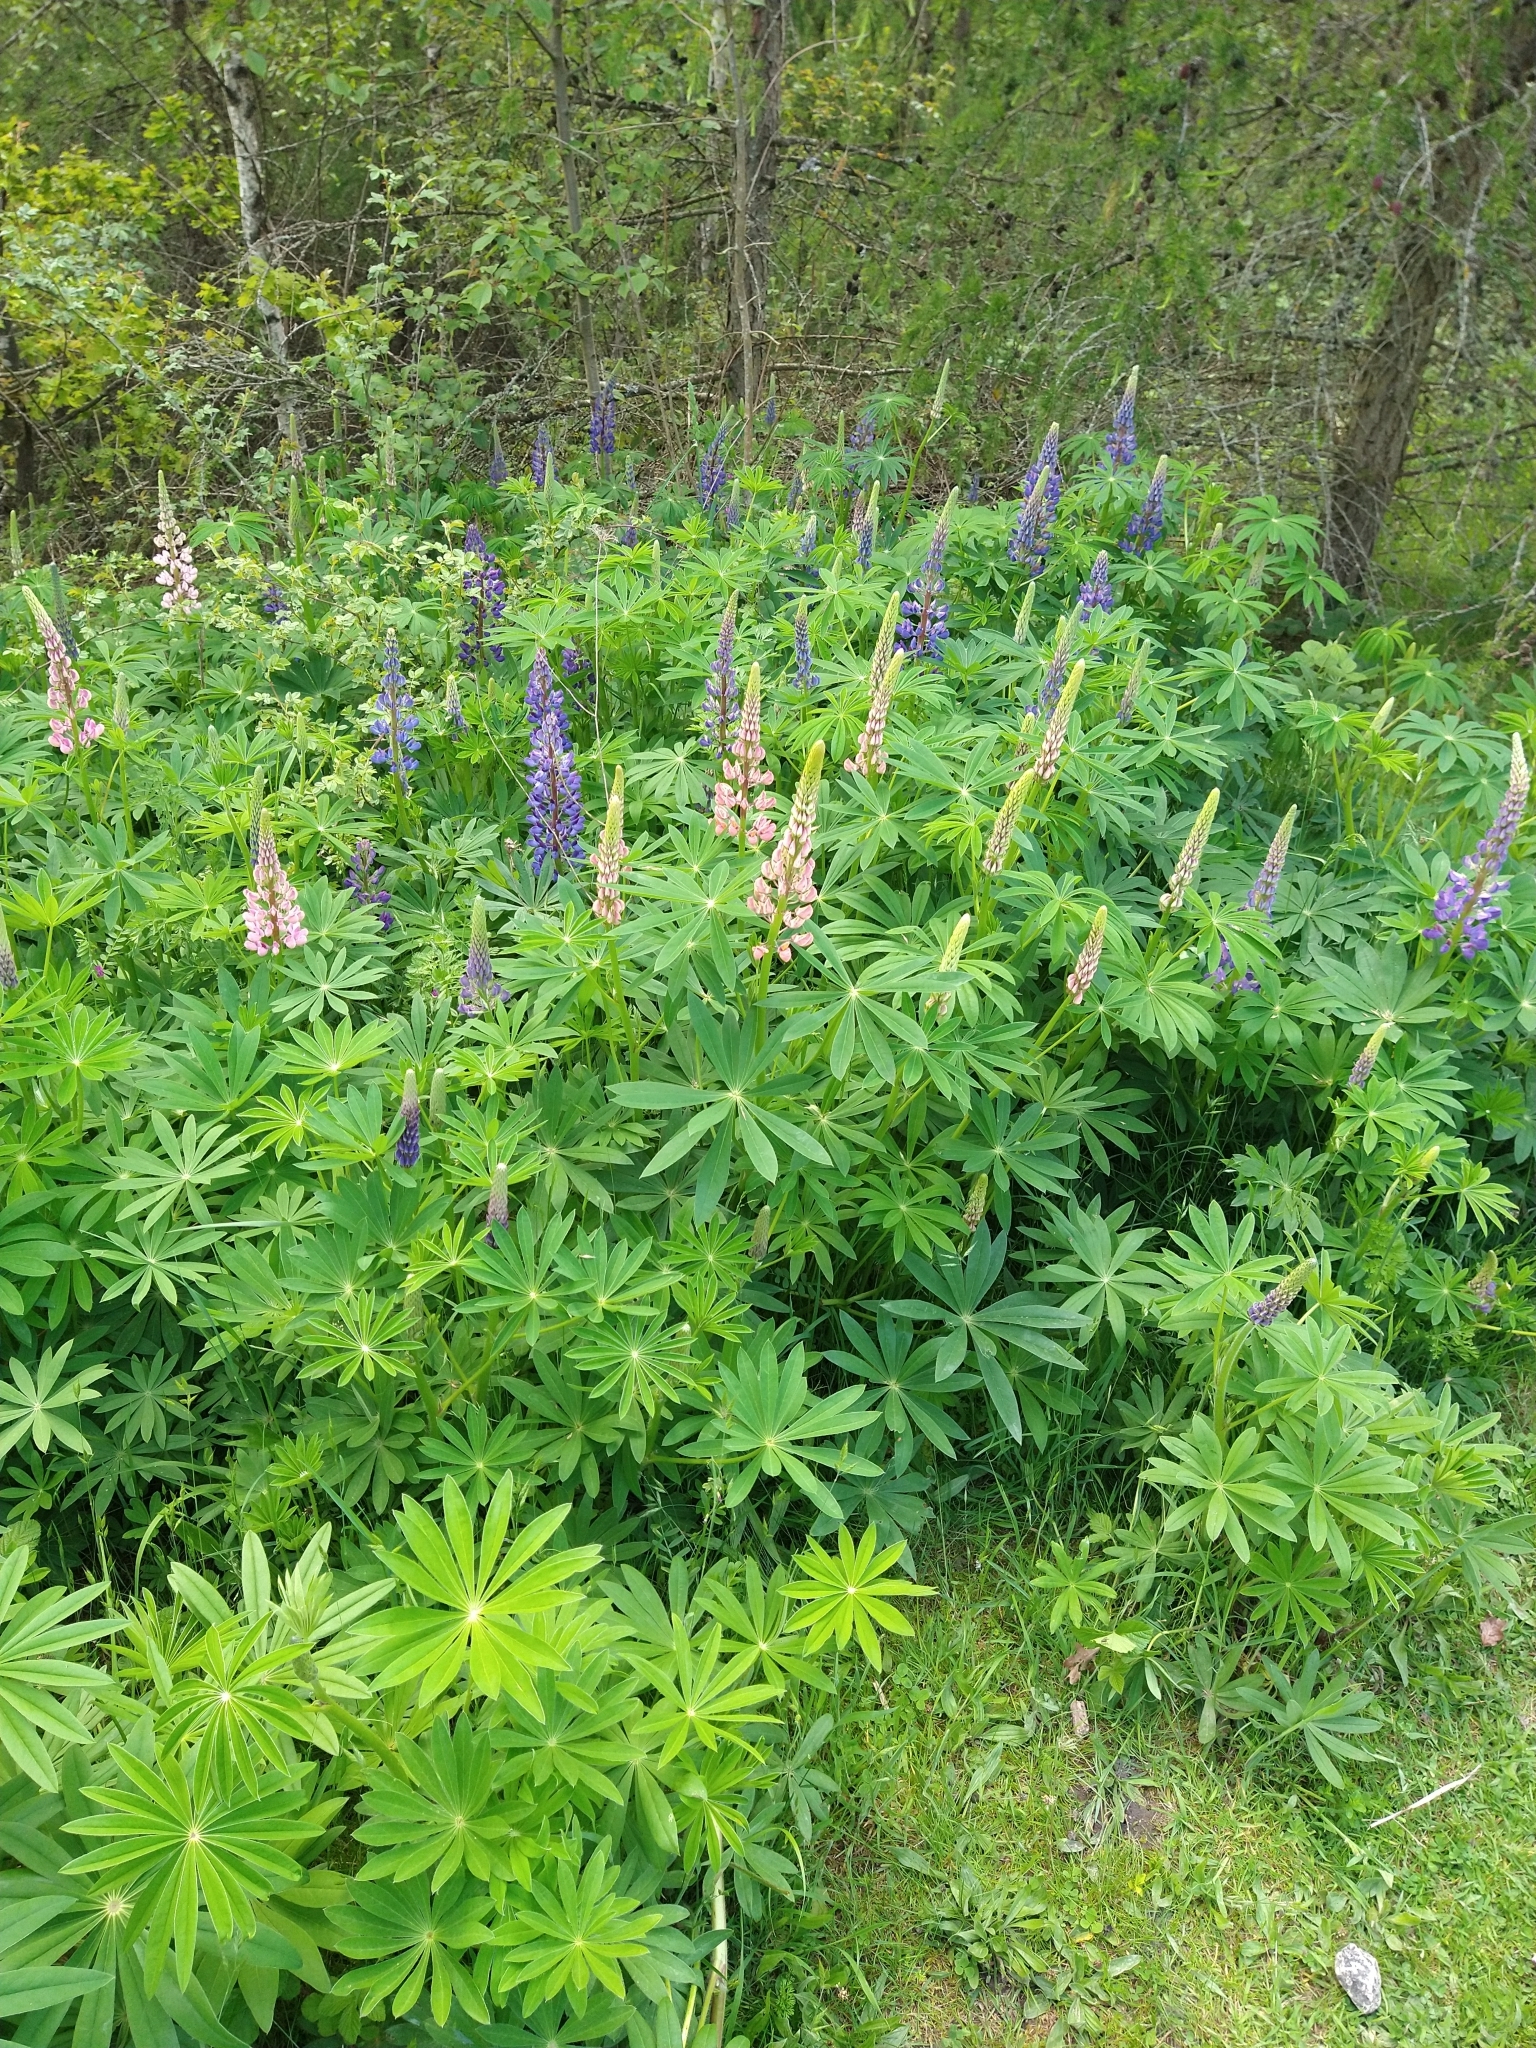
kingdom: Plantae
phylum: Tracheophyta
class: Magnoliopsida
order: Fabales
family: Fabaceae
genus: Lupinus
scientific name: Lupinus polyphyllus
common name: Garden lupin
